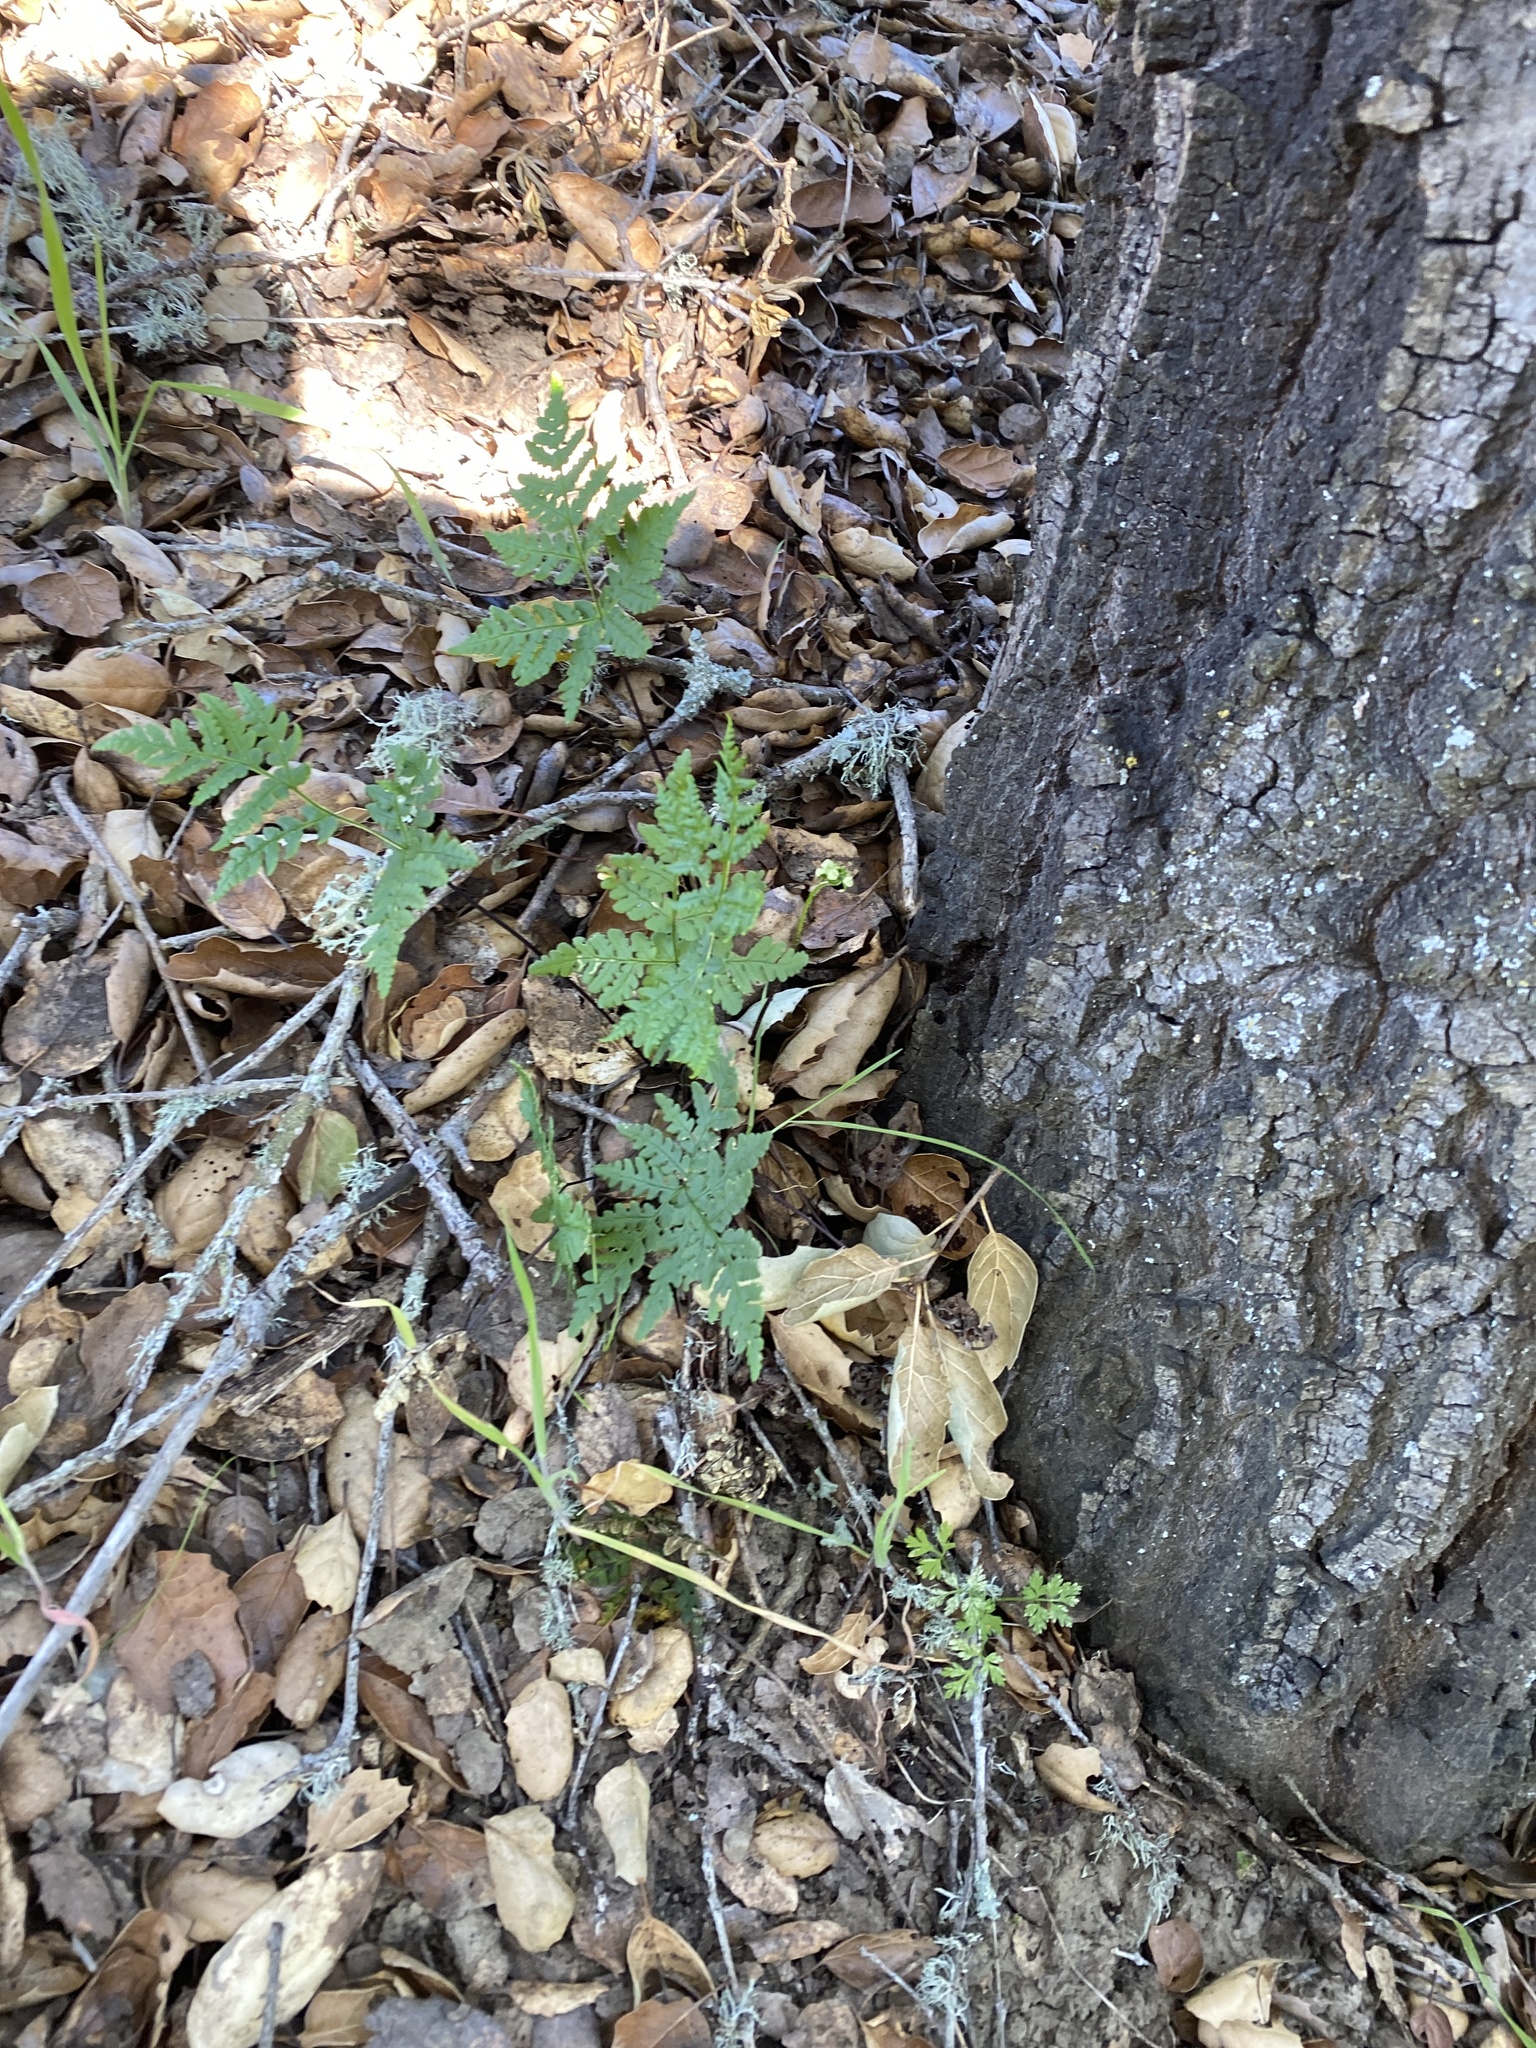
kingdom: Plantae
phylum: Tracheophyta
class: Polypodiopsida
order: Polypodiales
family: Pteridaceae
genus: Pentagramma
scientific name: Pentagramma triangularis
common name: Gold fern
